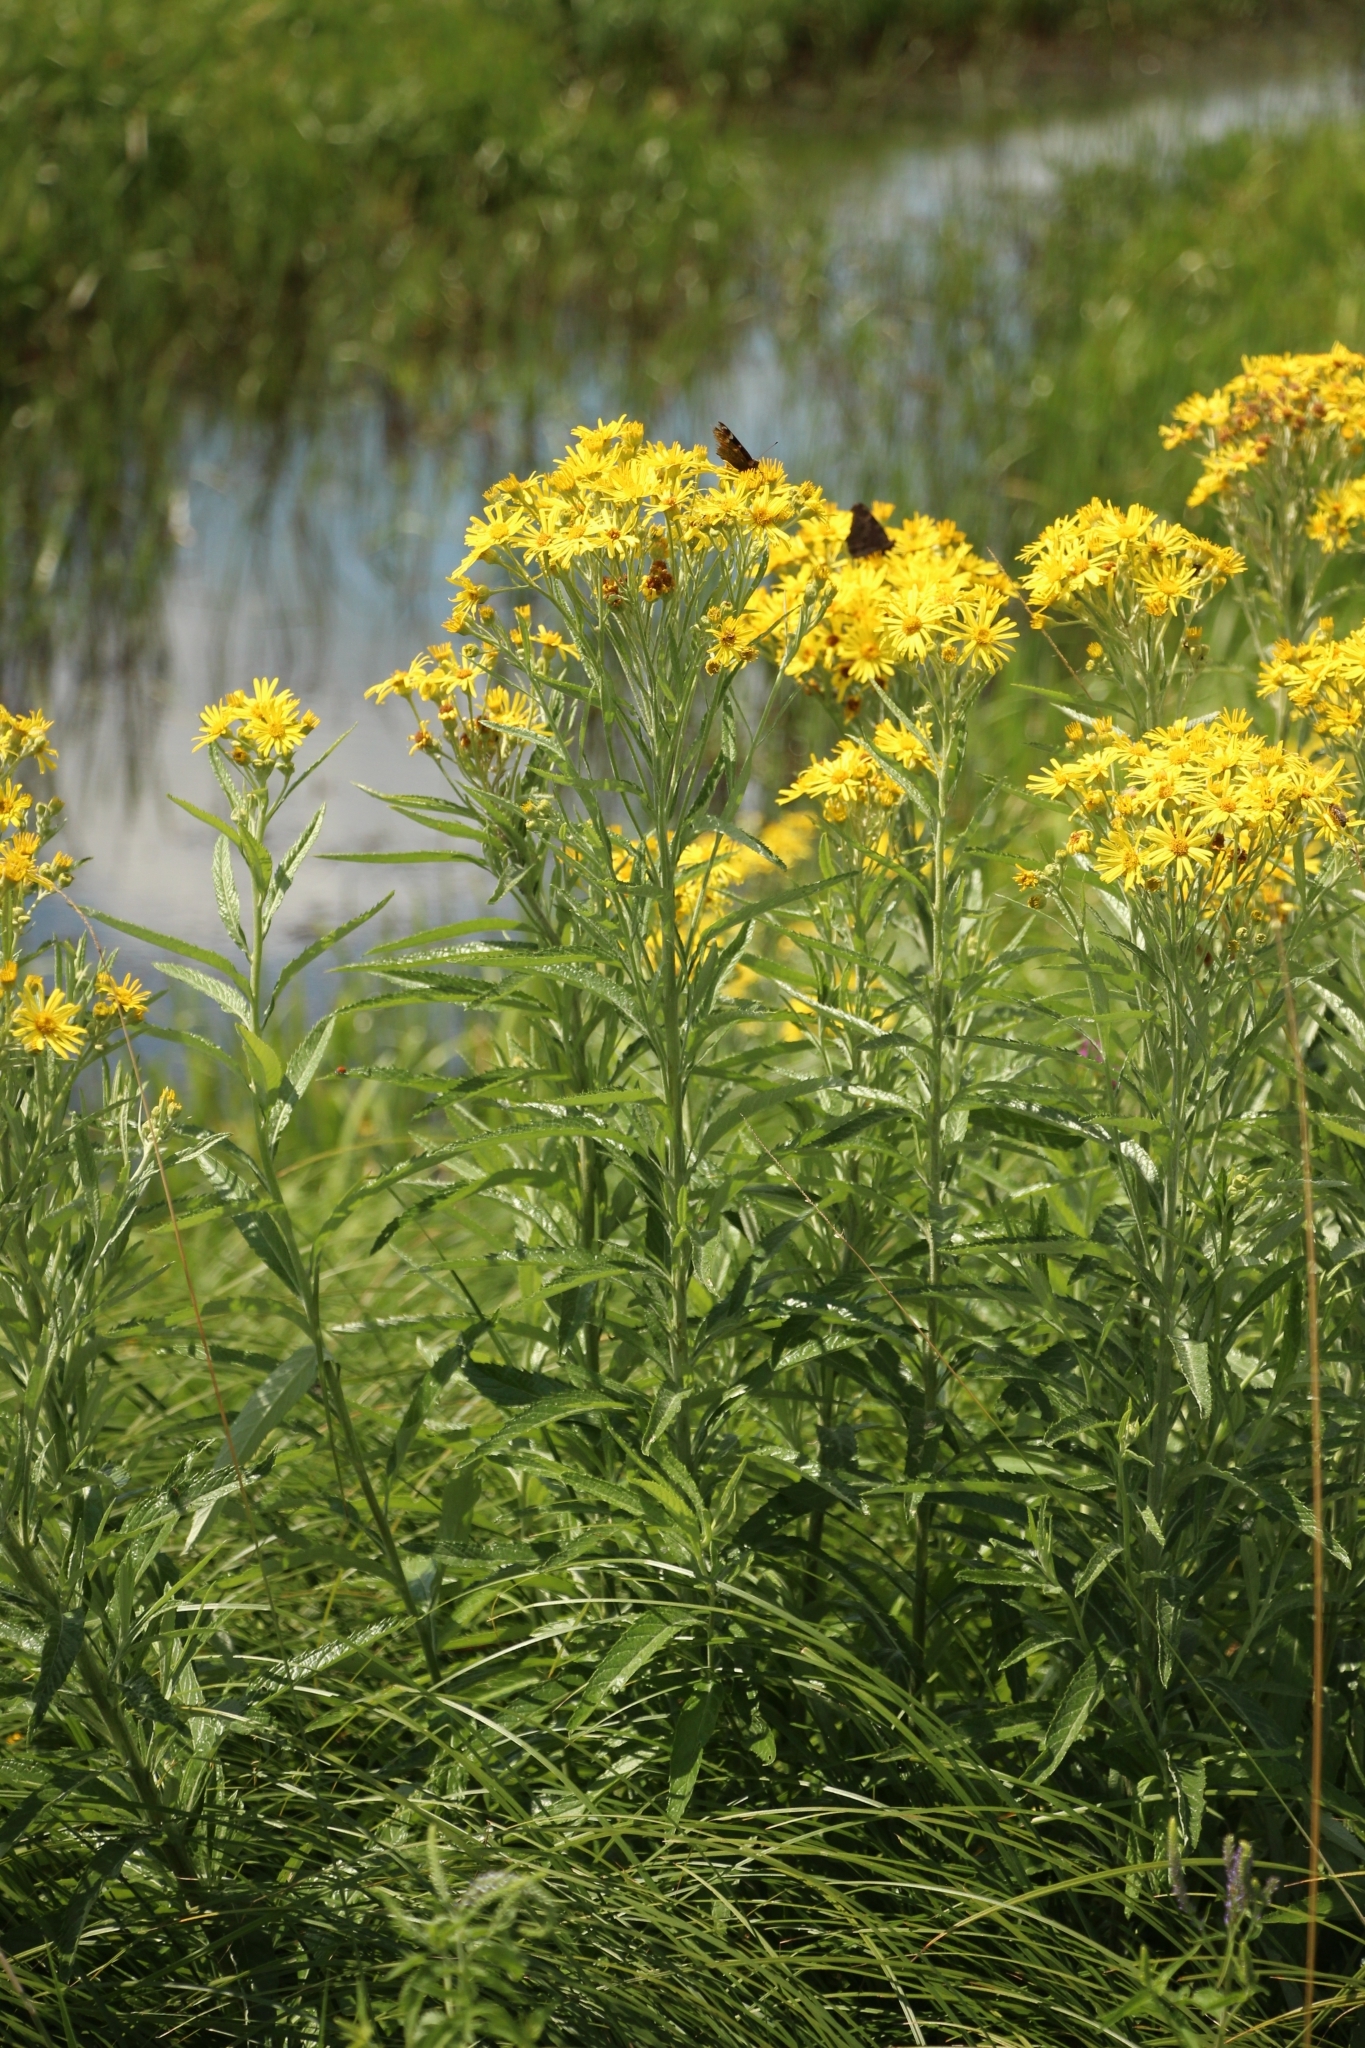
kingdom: Plantae
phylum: Tracheophyta
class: Magnoliopsida
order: Asterales
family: Asteraceae
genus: Jacobaea
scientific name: Jacobaea paludosa
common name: Fen ragwort
